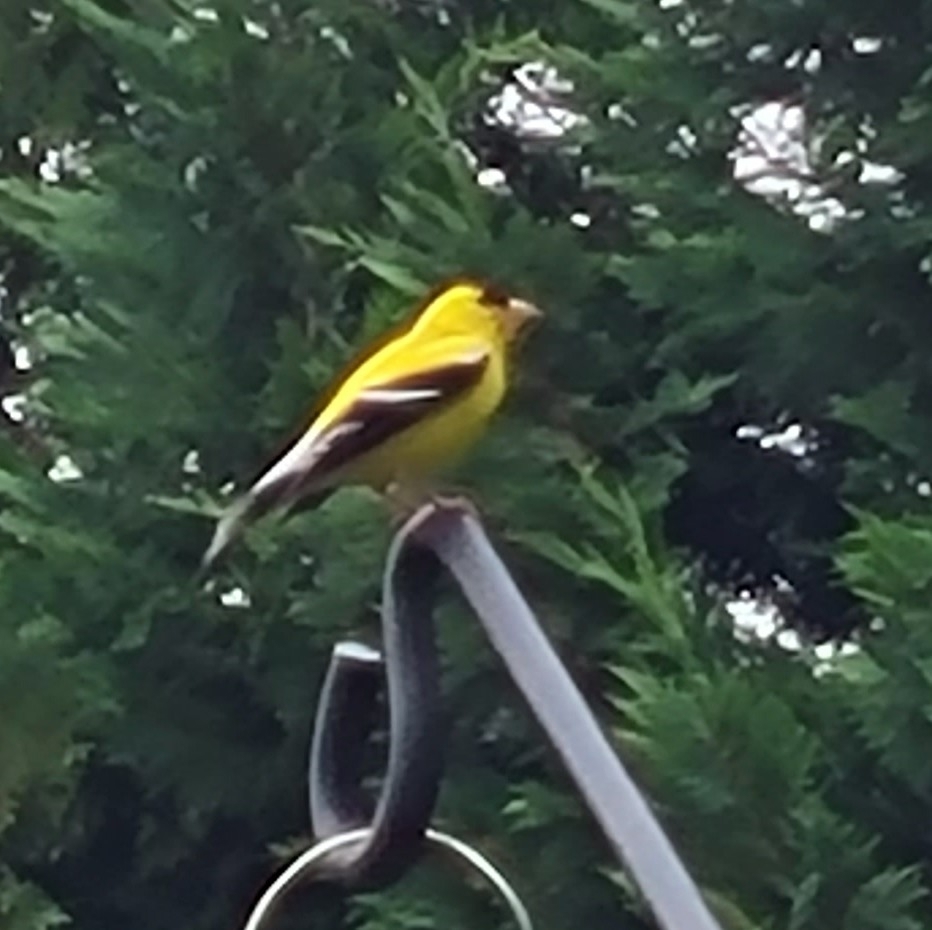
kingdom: Animalia
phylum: Chordata
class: Aves
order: Passeriformes
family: Fringillidae
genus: Spinus
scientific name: Spinus tristis
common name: American goldfinch
